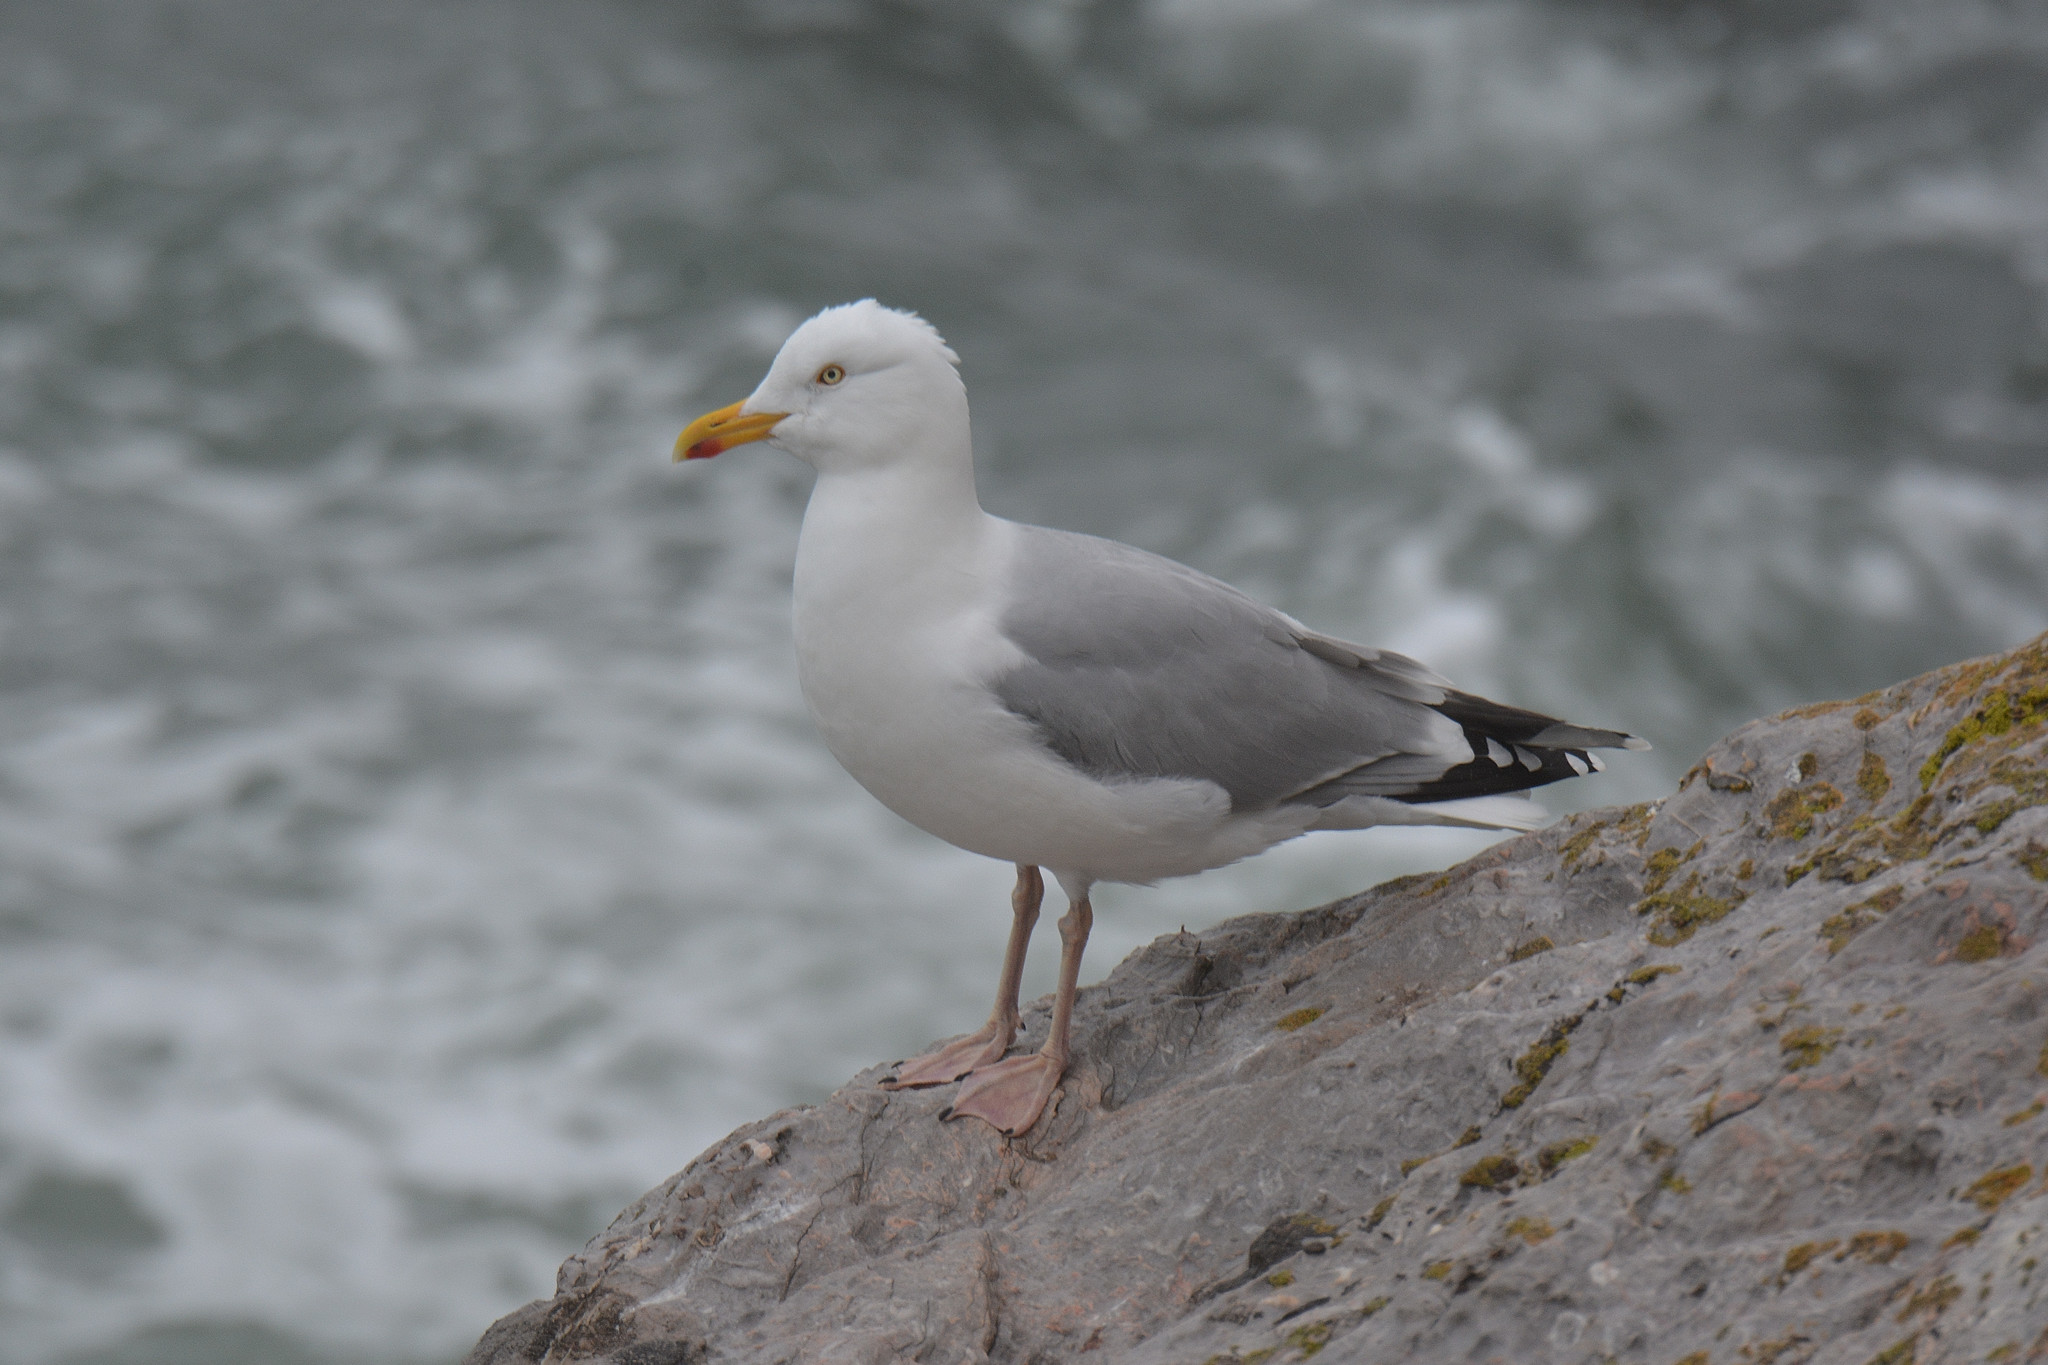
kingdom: Animalia
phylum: Chordata
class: Aves
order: Charadriiformes
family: Laridae
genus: Larus
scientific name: Larus argentatus
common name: Herring gull
